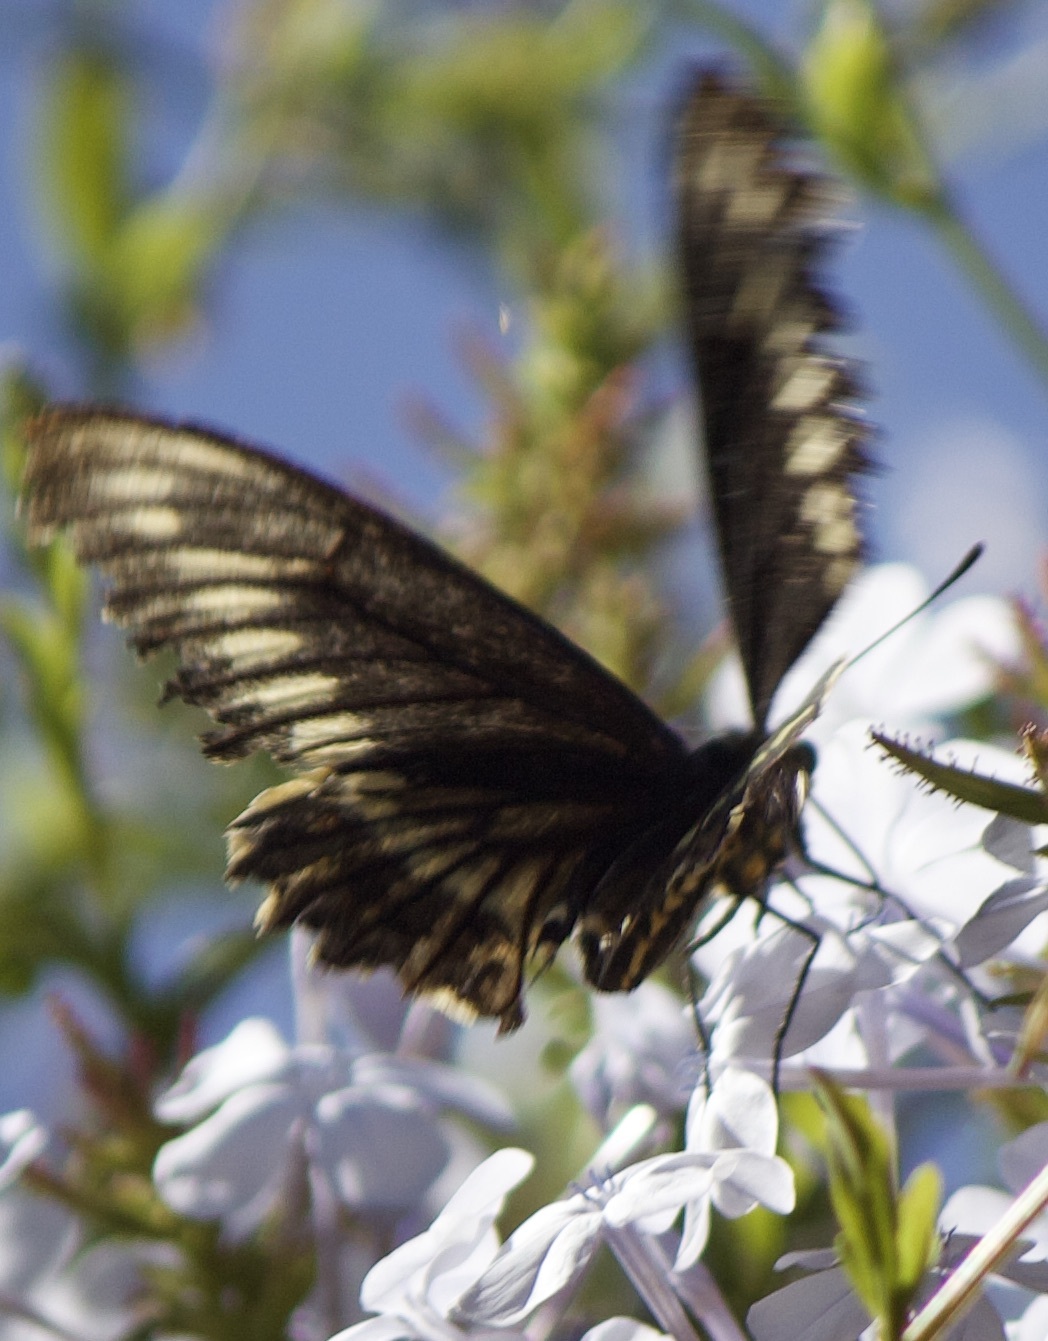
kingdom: Animalia
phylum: Arthropoda
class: Insecta
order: Lepidoptera
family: Papilionidae
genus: Battus
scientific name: Battus polydamas
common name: Polydamas swallowtail
